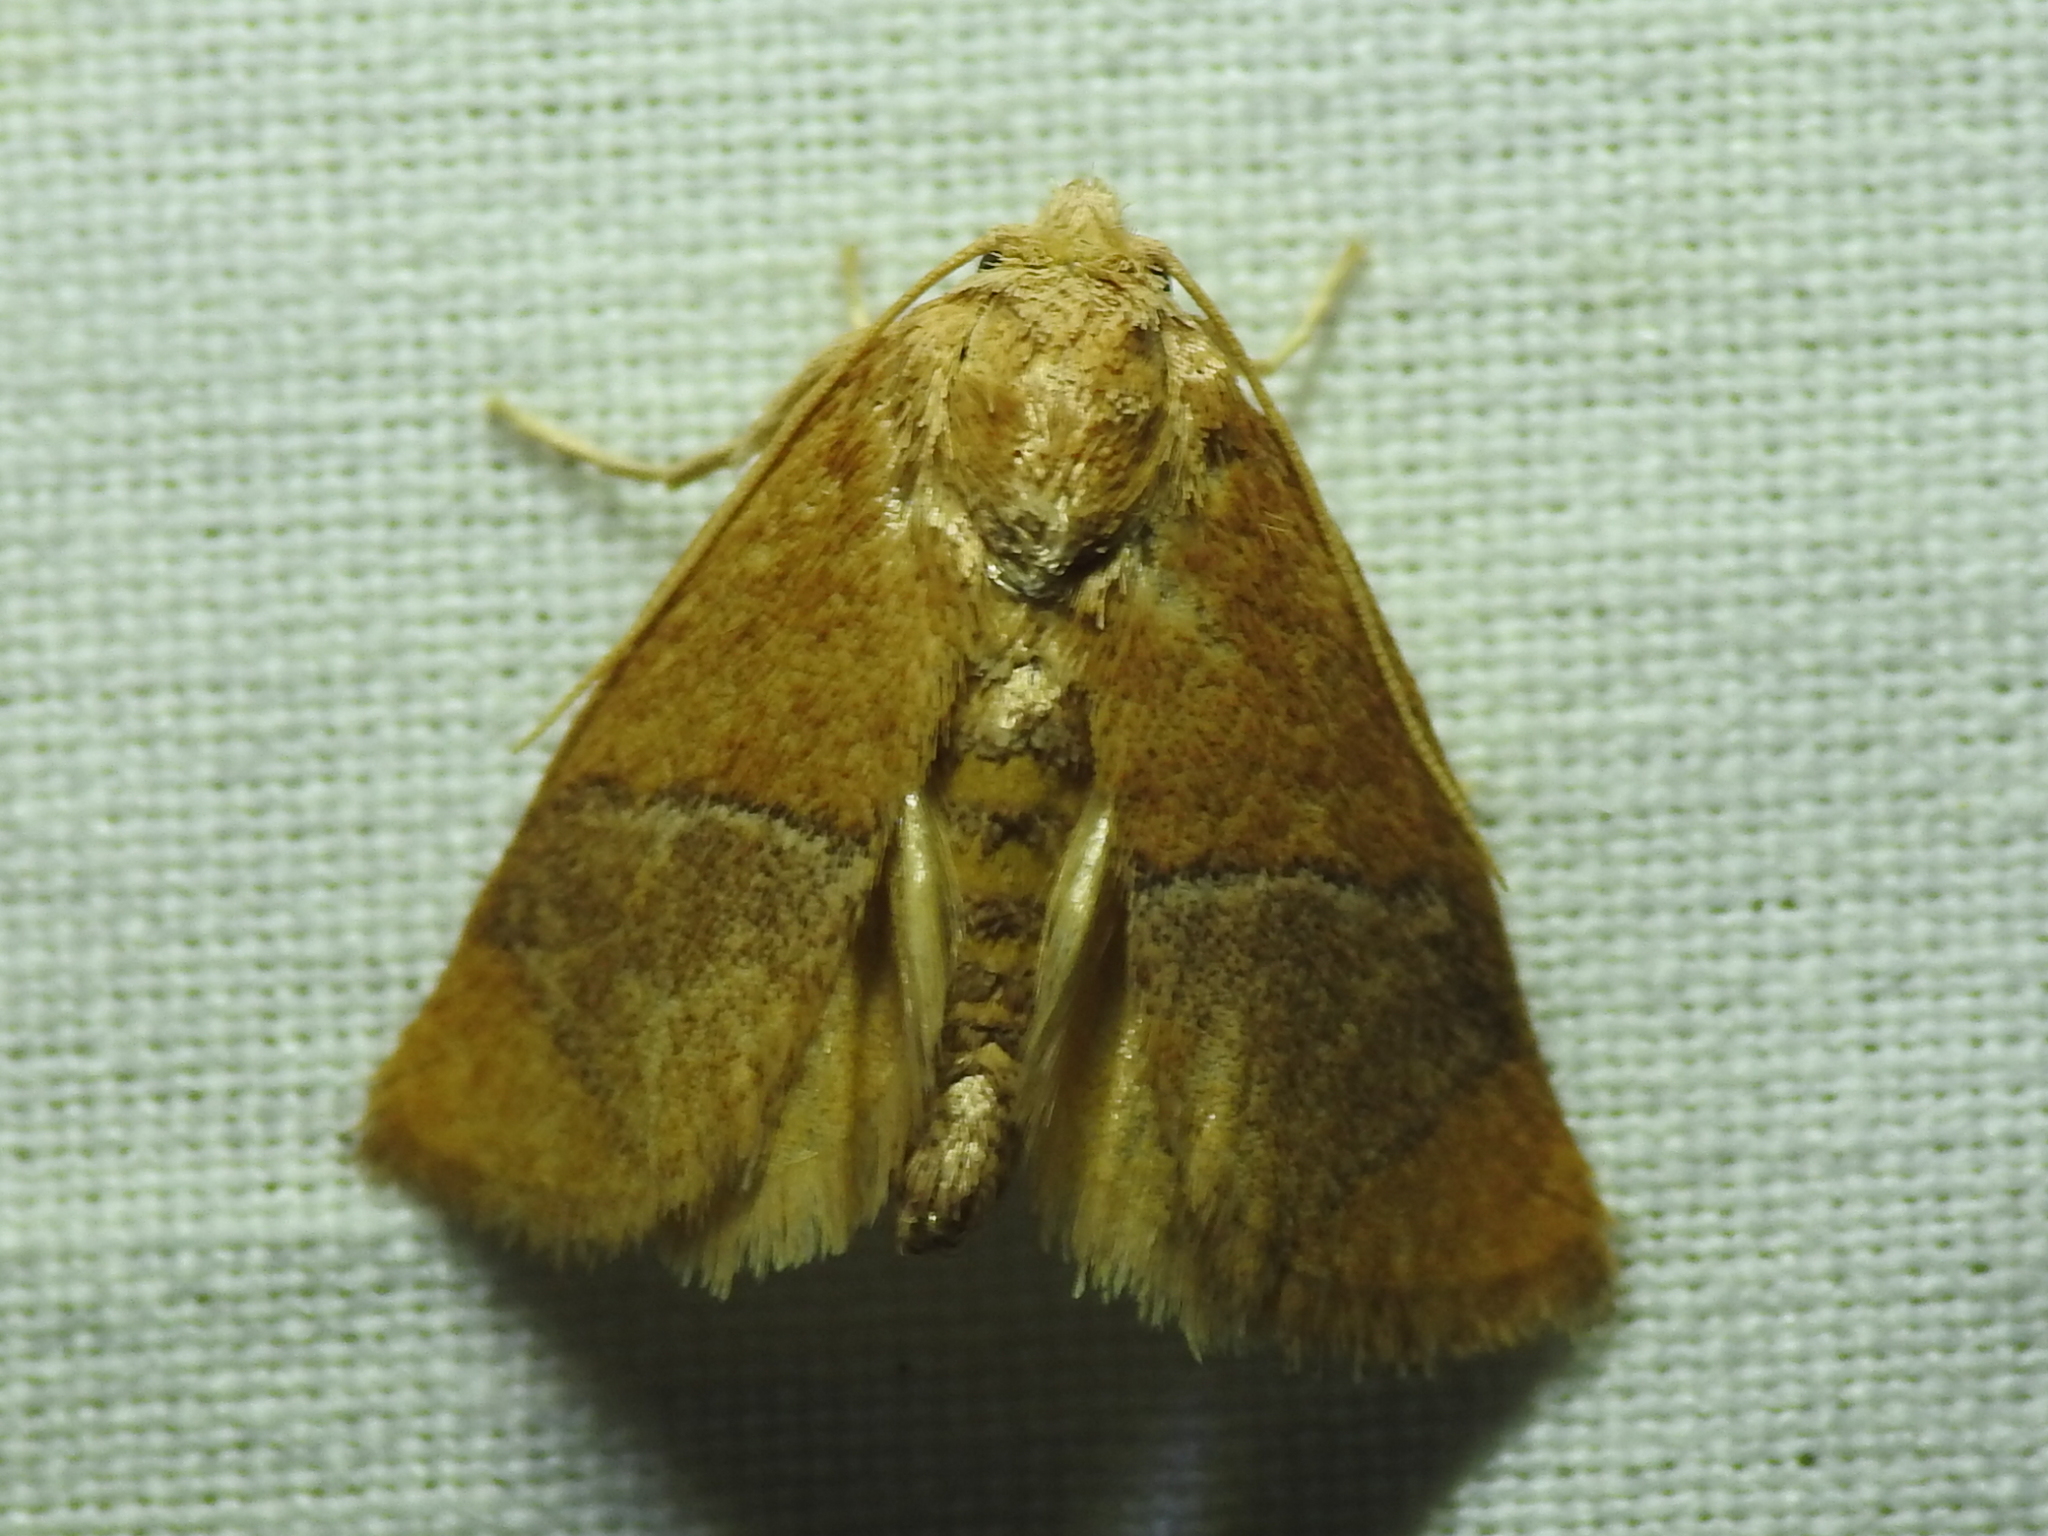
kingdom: Animalia
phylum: Arthropoda
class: Insecta
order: Lepidoptera
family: Limacodidae
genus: Apoda
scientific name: Apoda latomia
